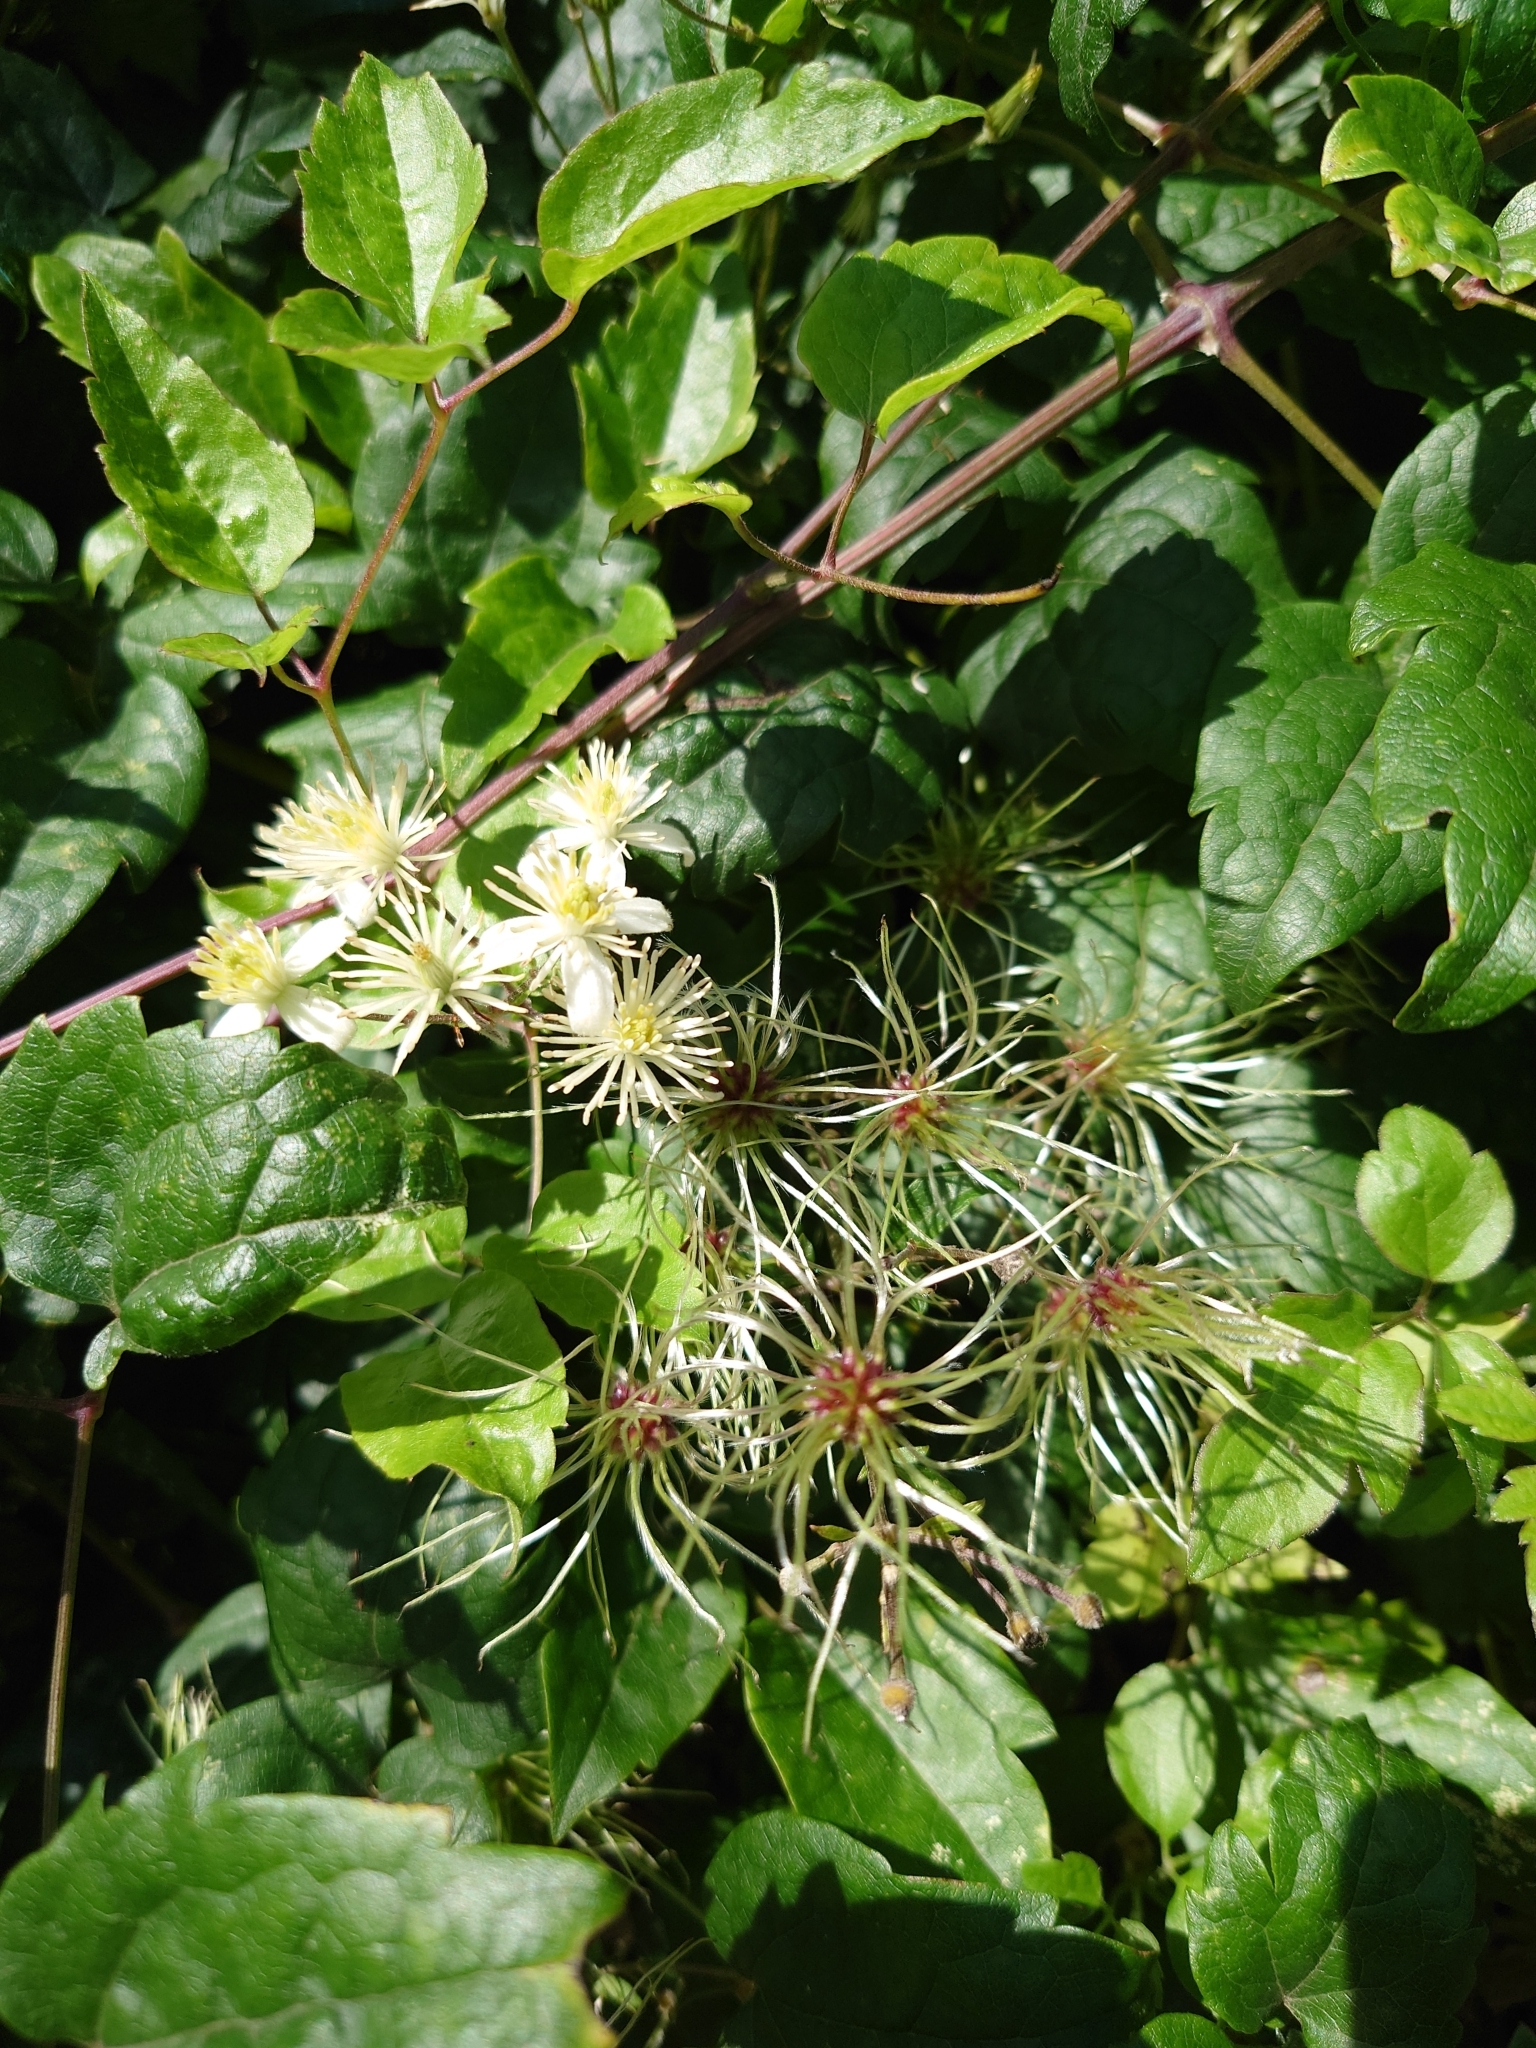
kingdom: Plantae
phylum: Tracheophyta
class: Magnoliopsida
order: Ranunculales
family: Ranunculaceae
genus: Clematis
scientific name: Clematis vitalba
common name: Evergreen clematis
